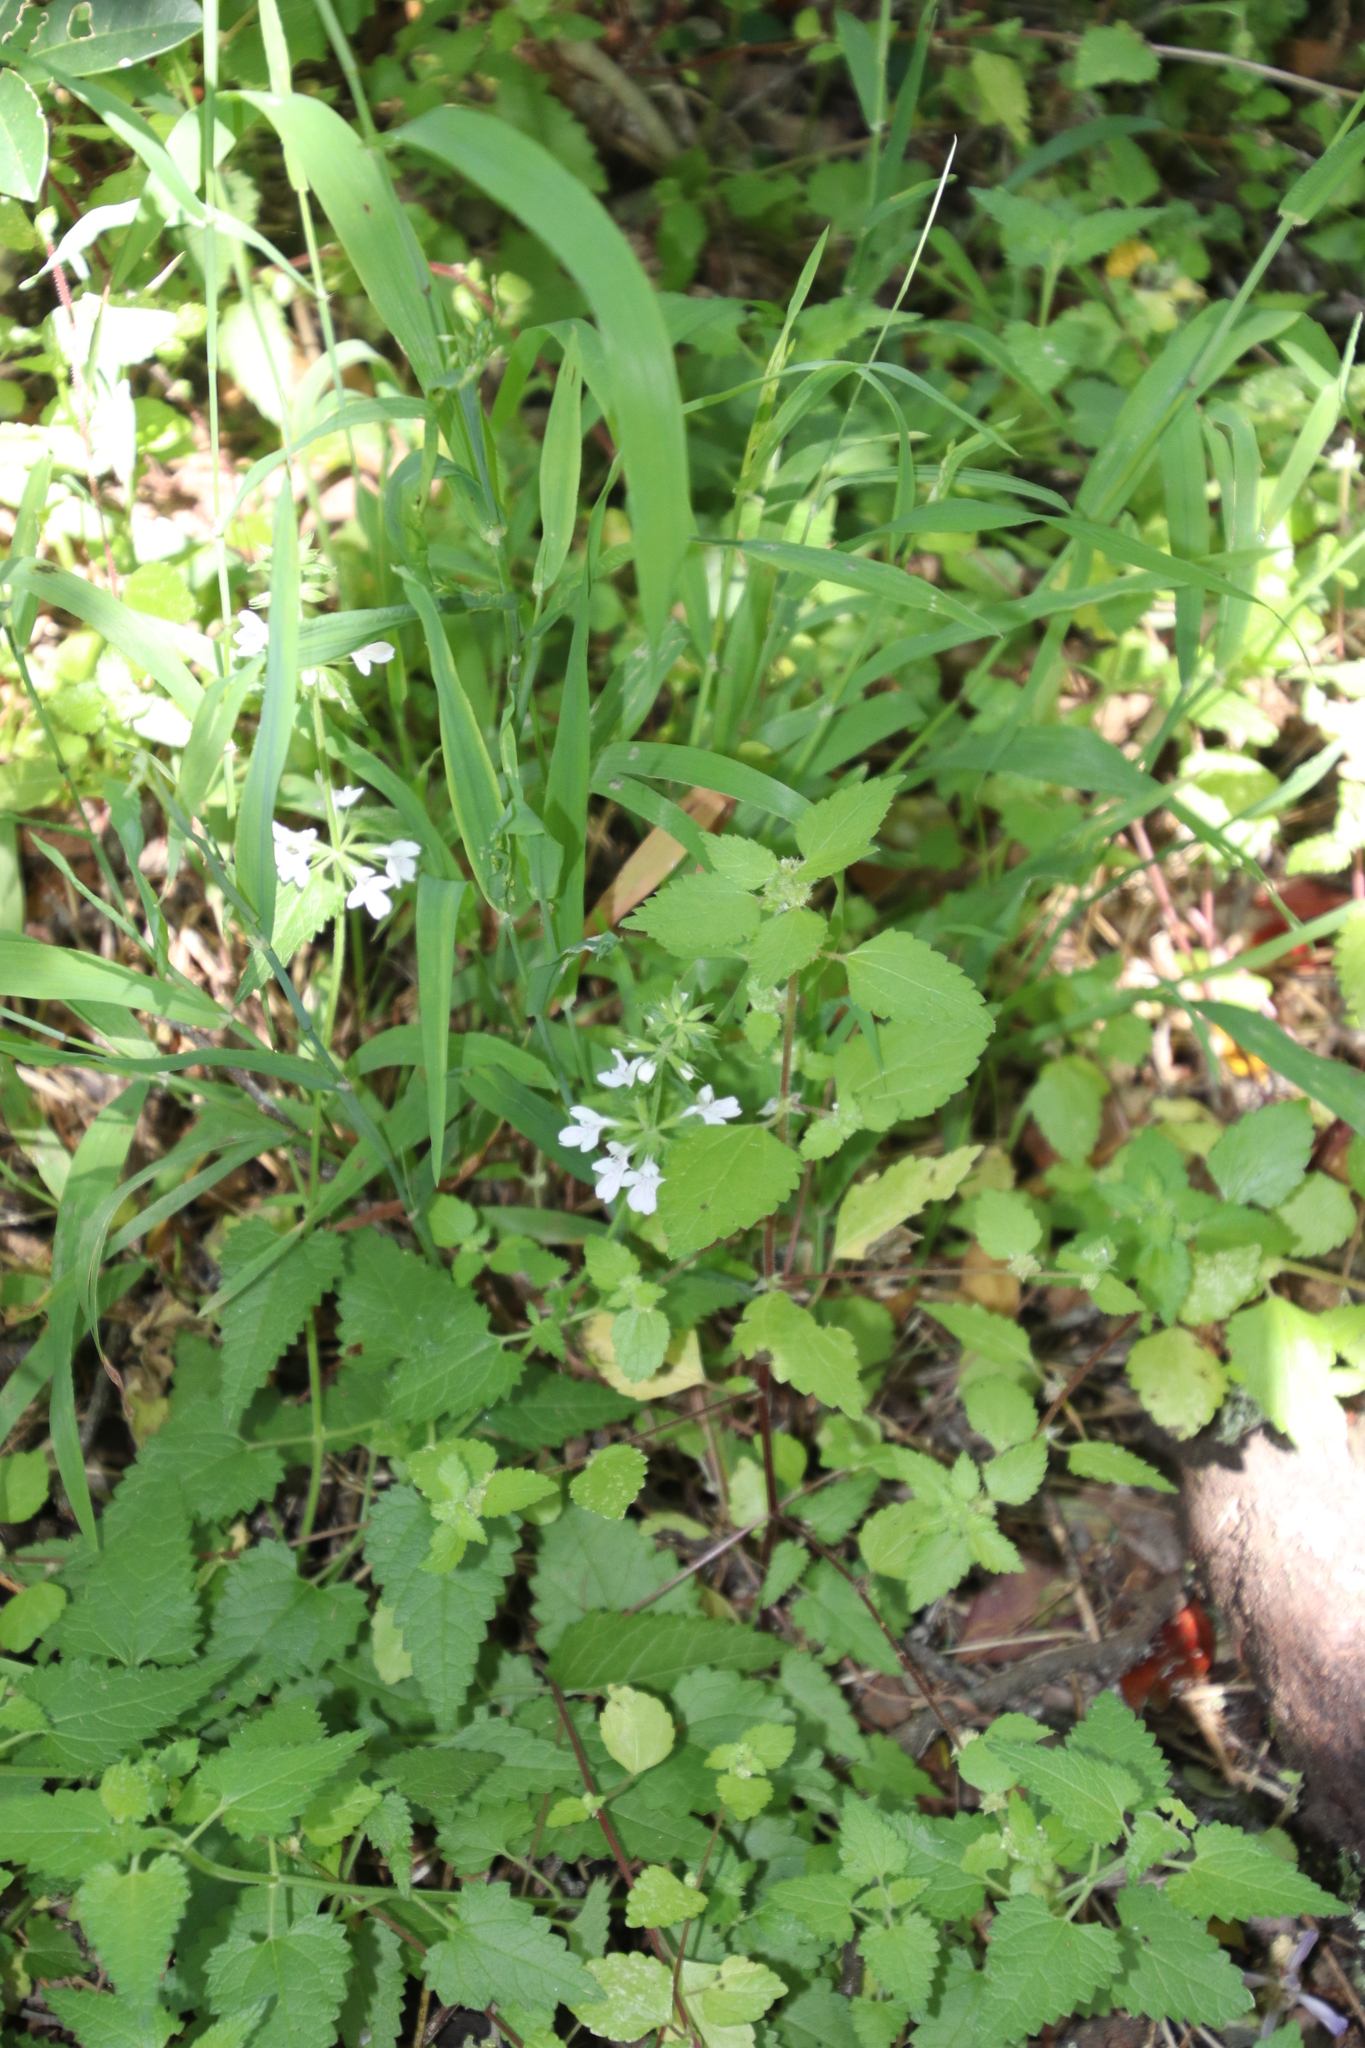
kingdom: Plantae
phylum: Tracheophyta
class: Magnoliopsida
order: Lamiales
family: Lamiaceae
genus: Stachys
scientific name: Stachys aethiopica
